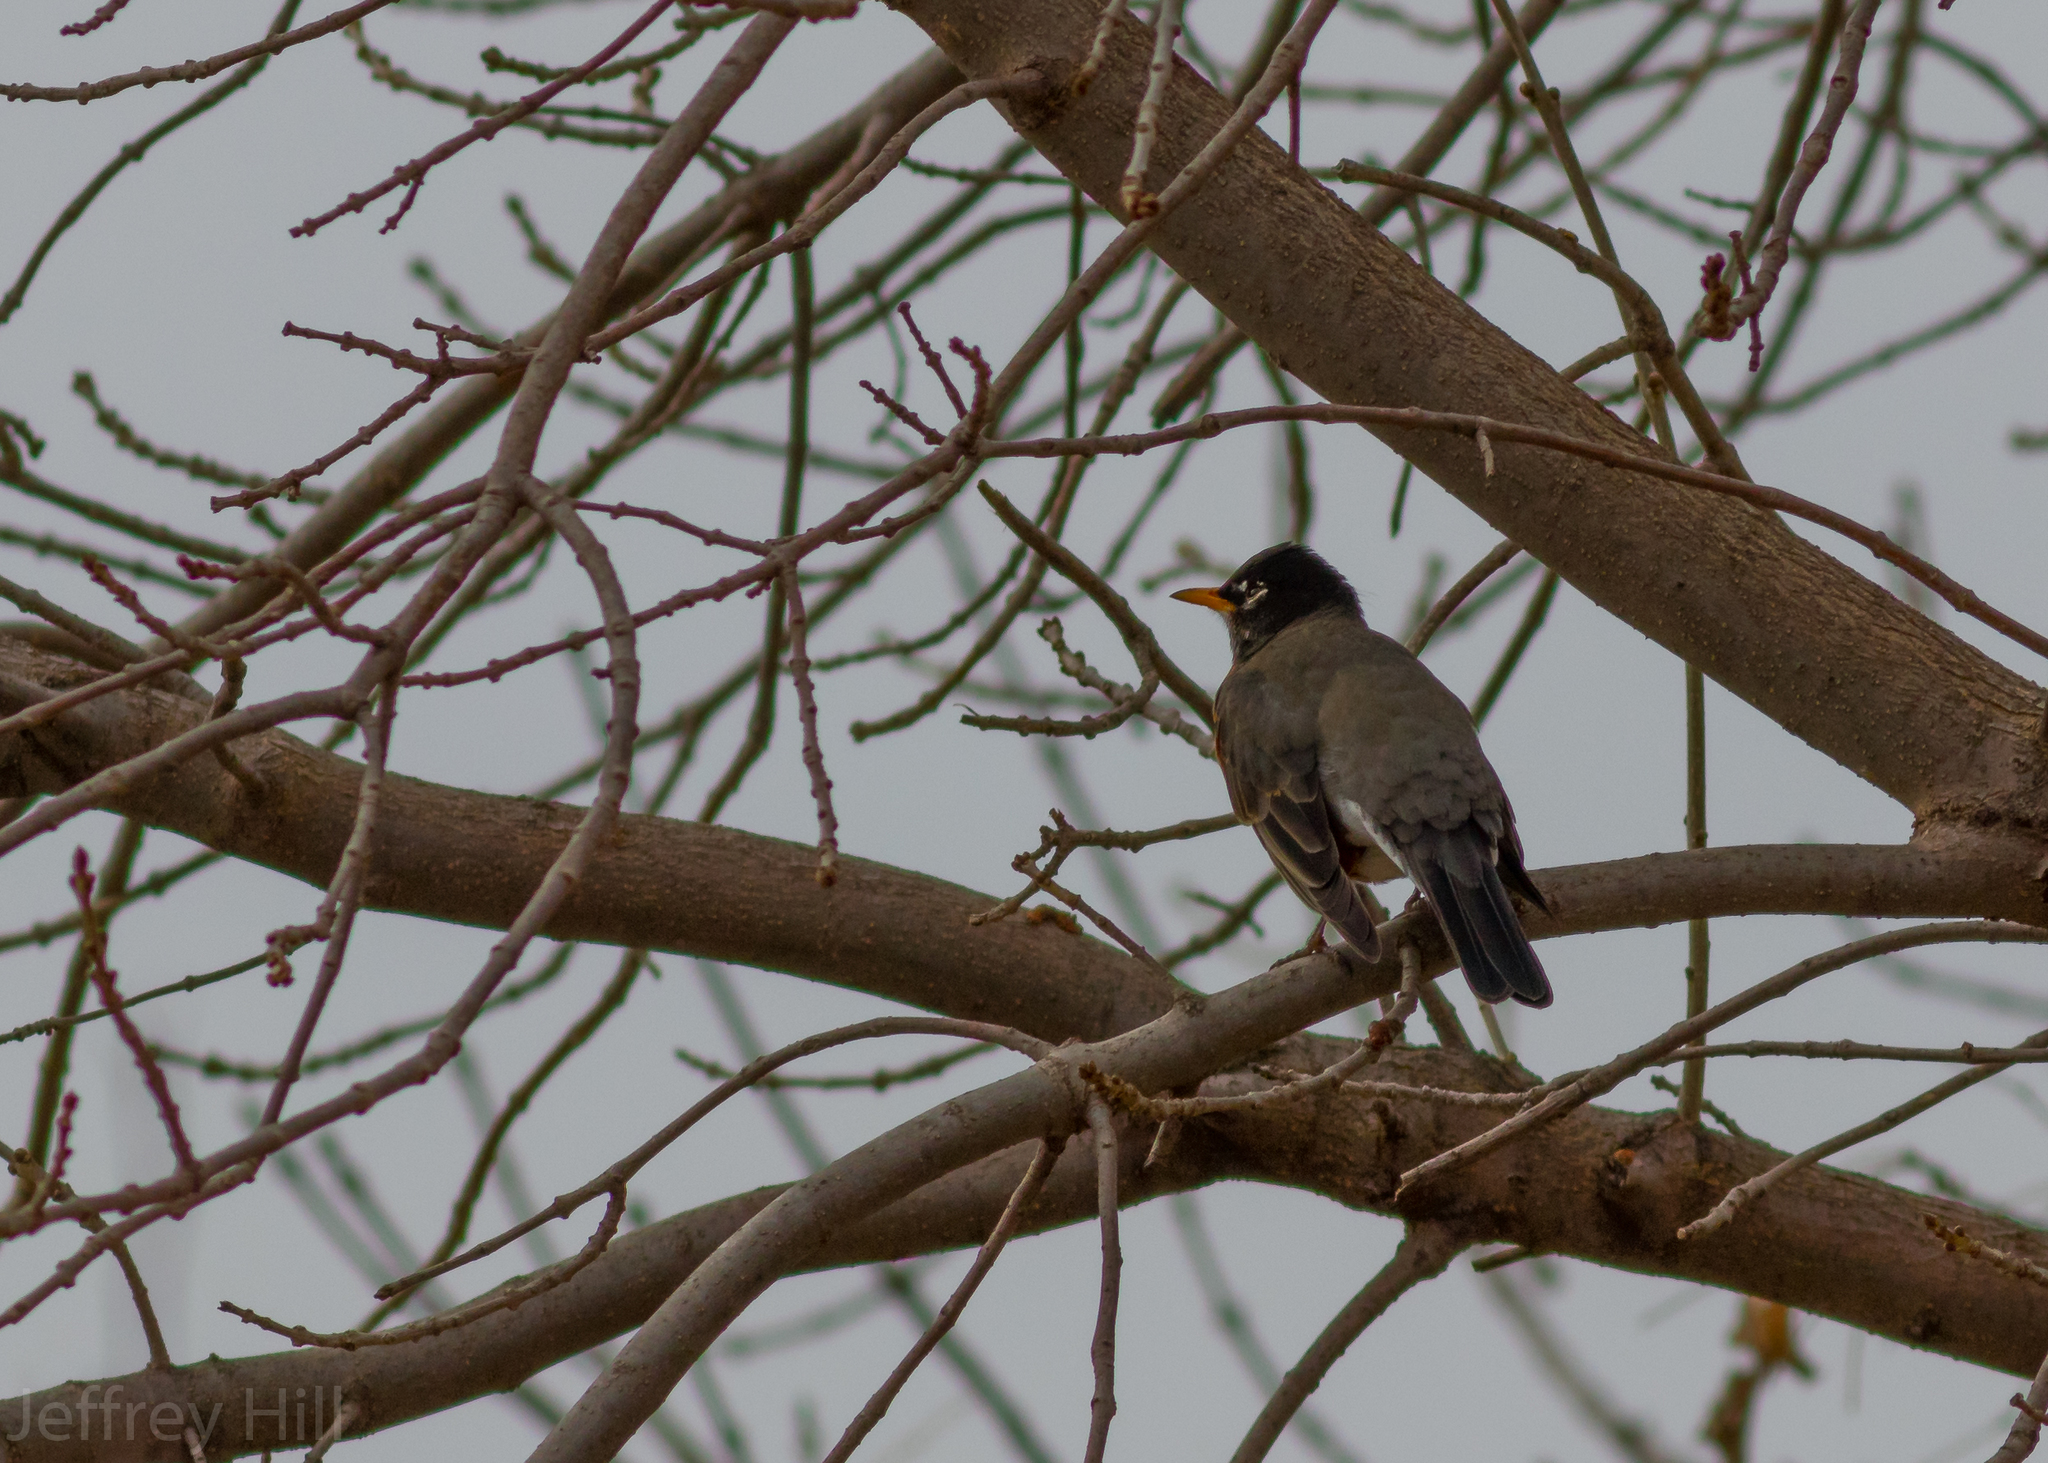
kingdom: Animalia
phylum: Chordata
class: Aves
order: Passeriformes
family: Turdidae
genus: Turdus
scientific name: Turdus migratorius
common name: American robin
